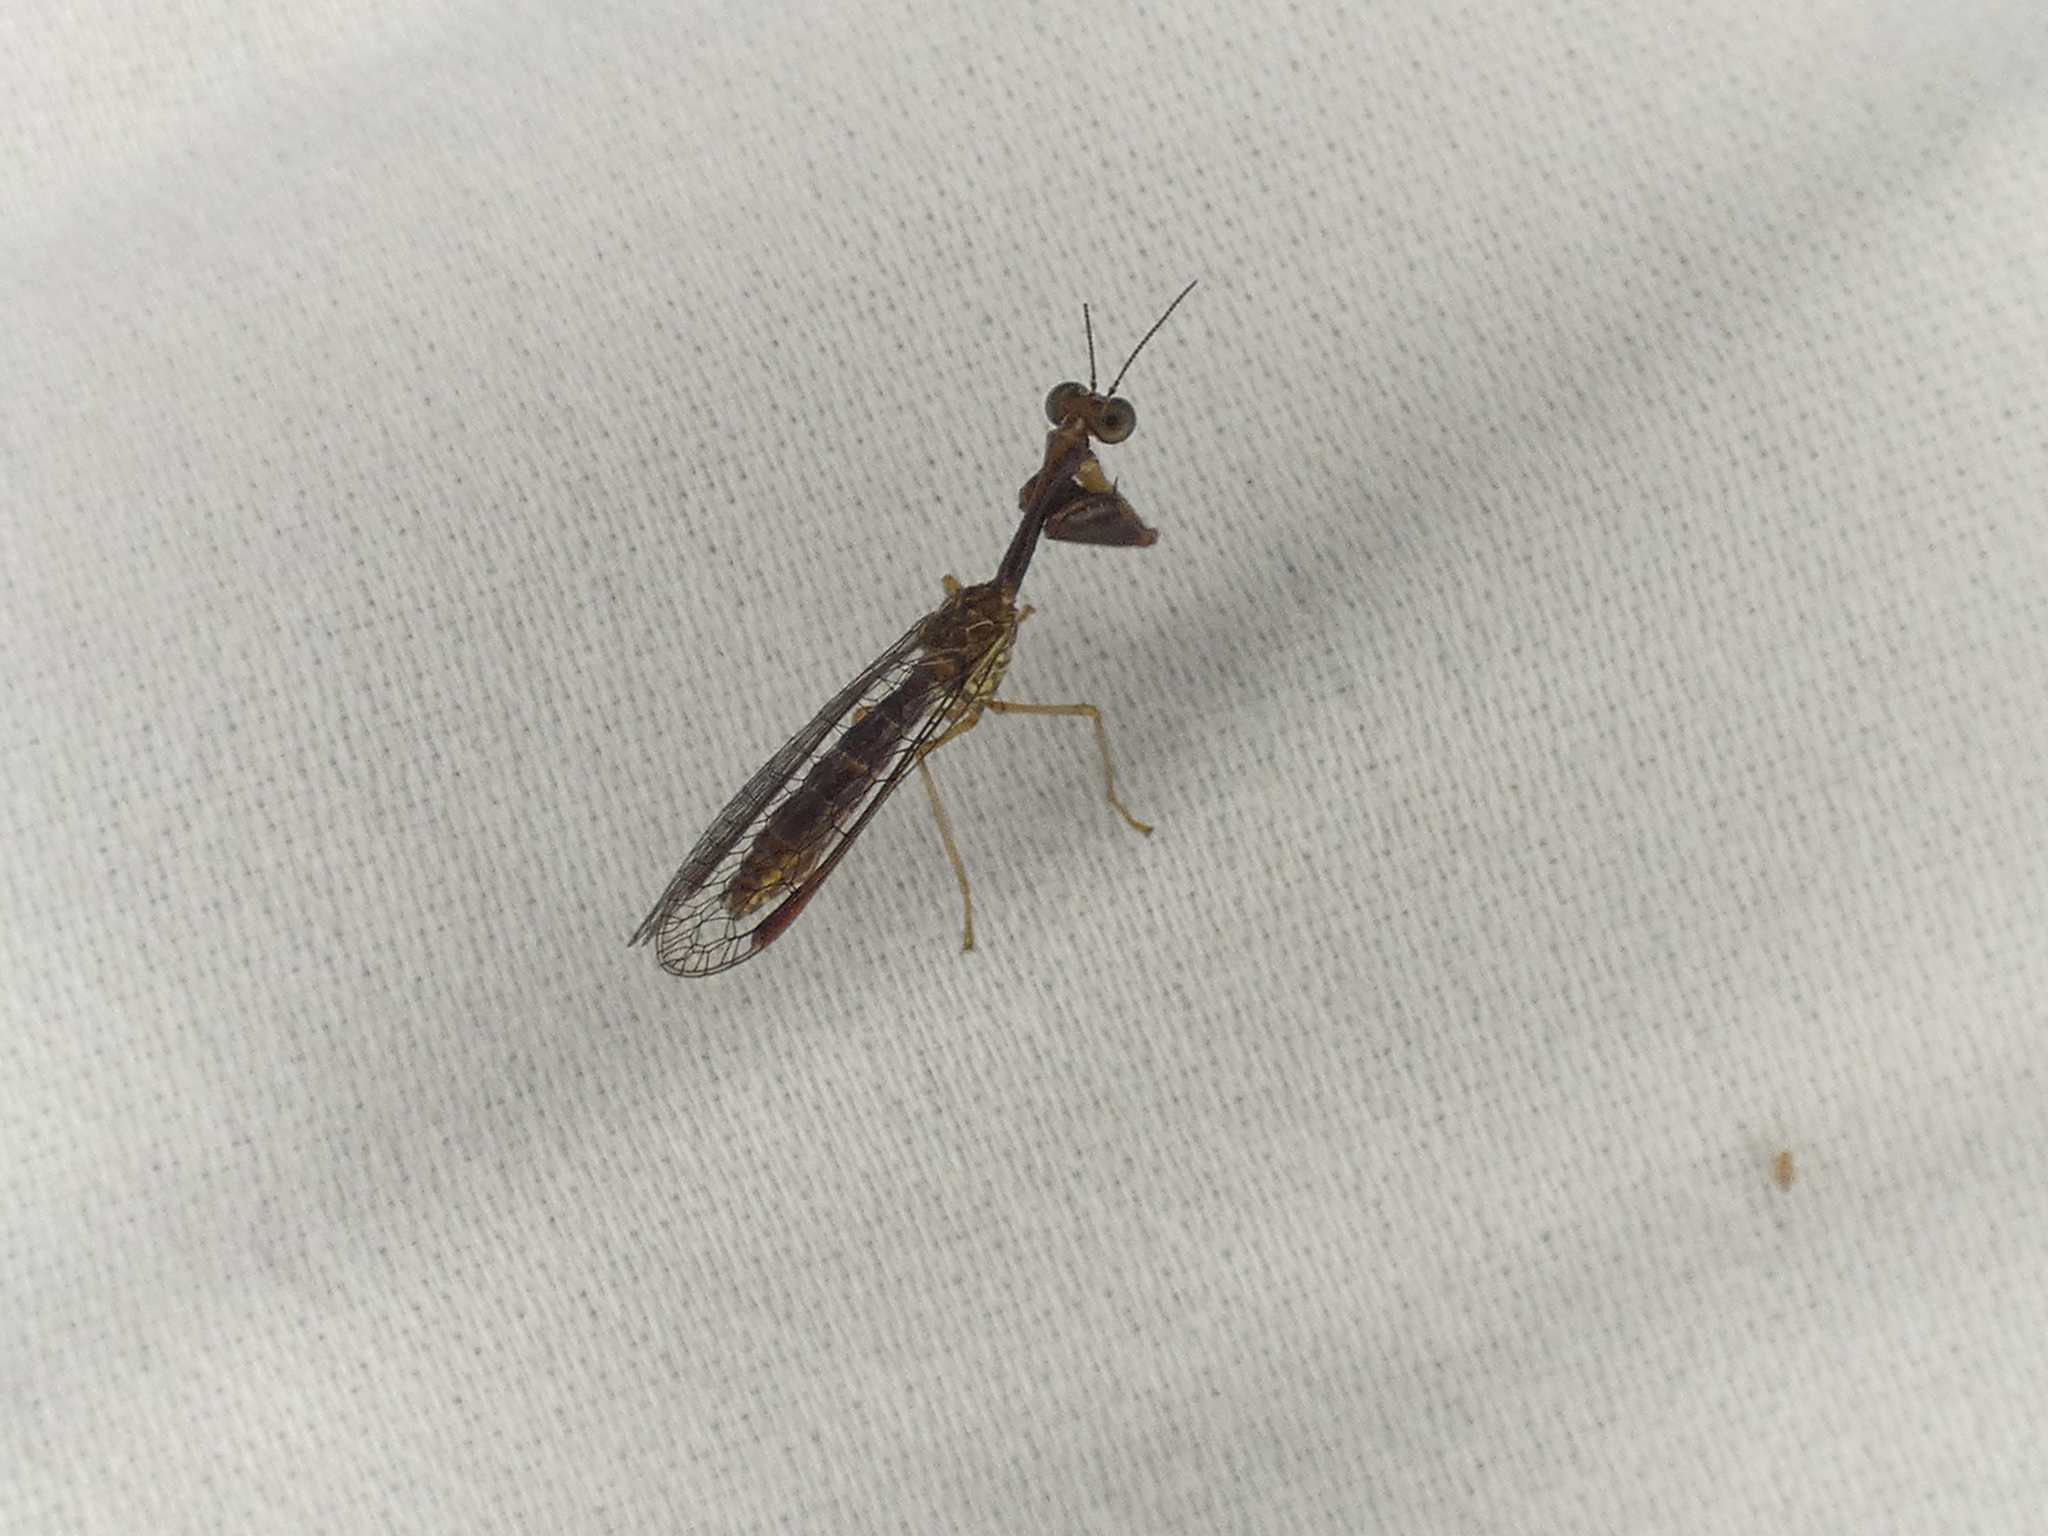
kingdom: Animalia
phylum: Arthropoda
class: Insecta
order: Neuroptera
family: Mantispidae
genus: Leptomantispa
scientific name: Leptomantispa pulchella
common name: Stevens's mantidfly
